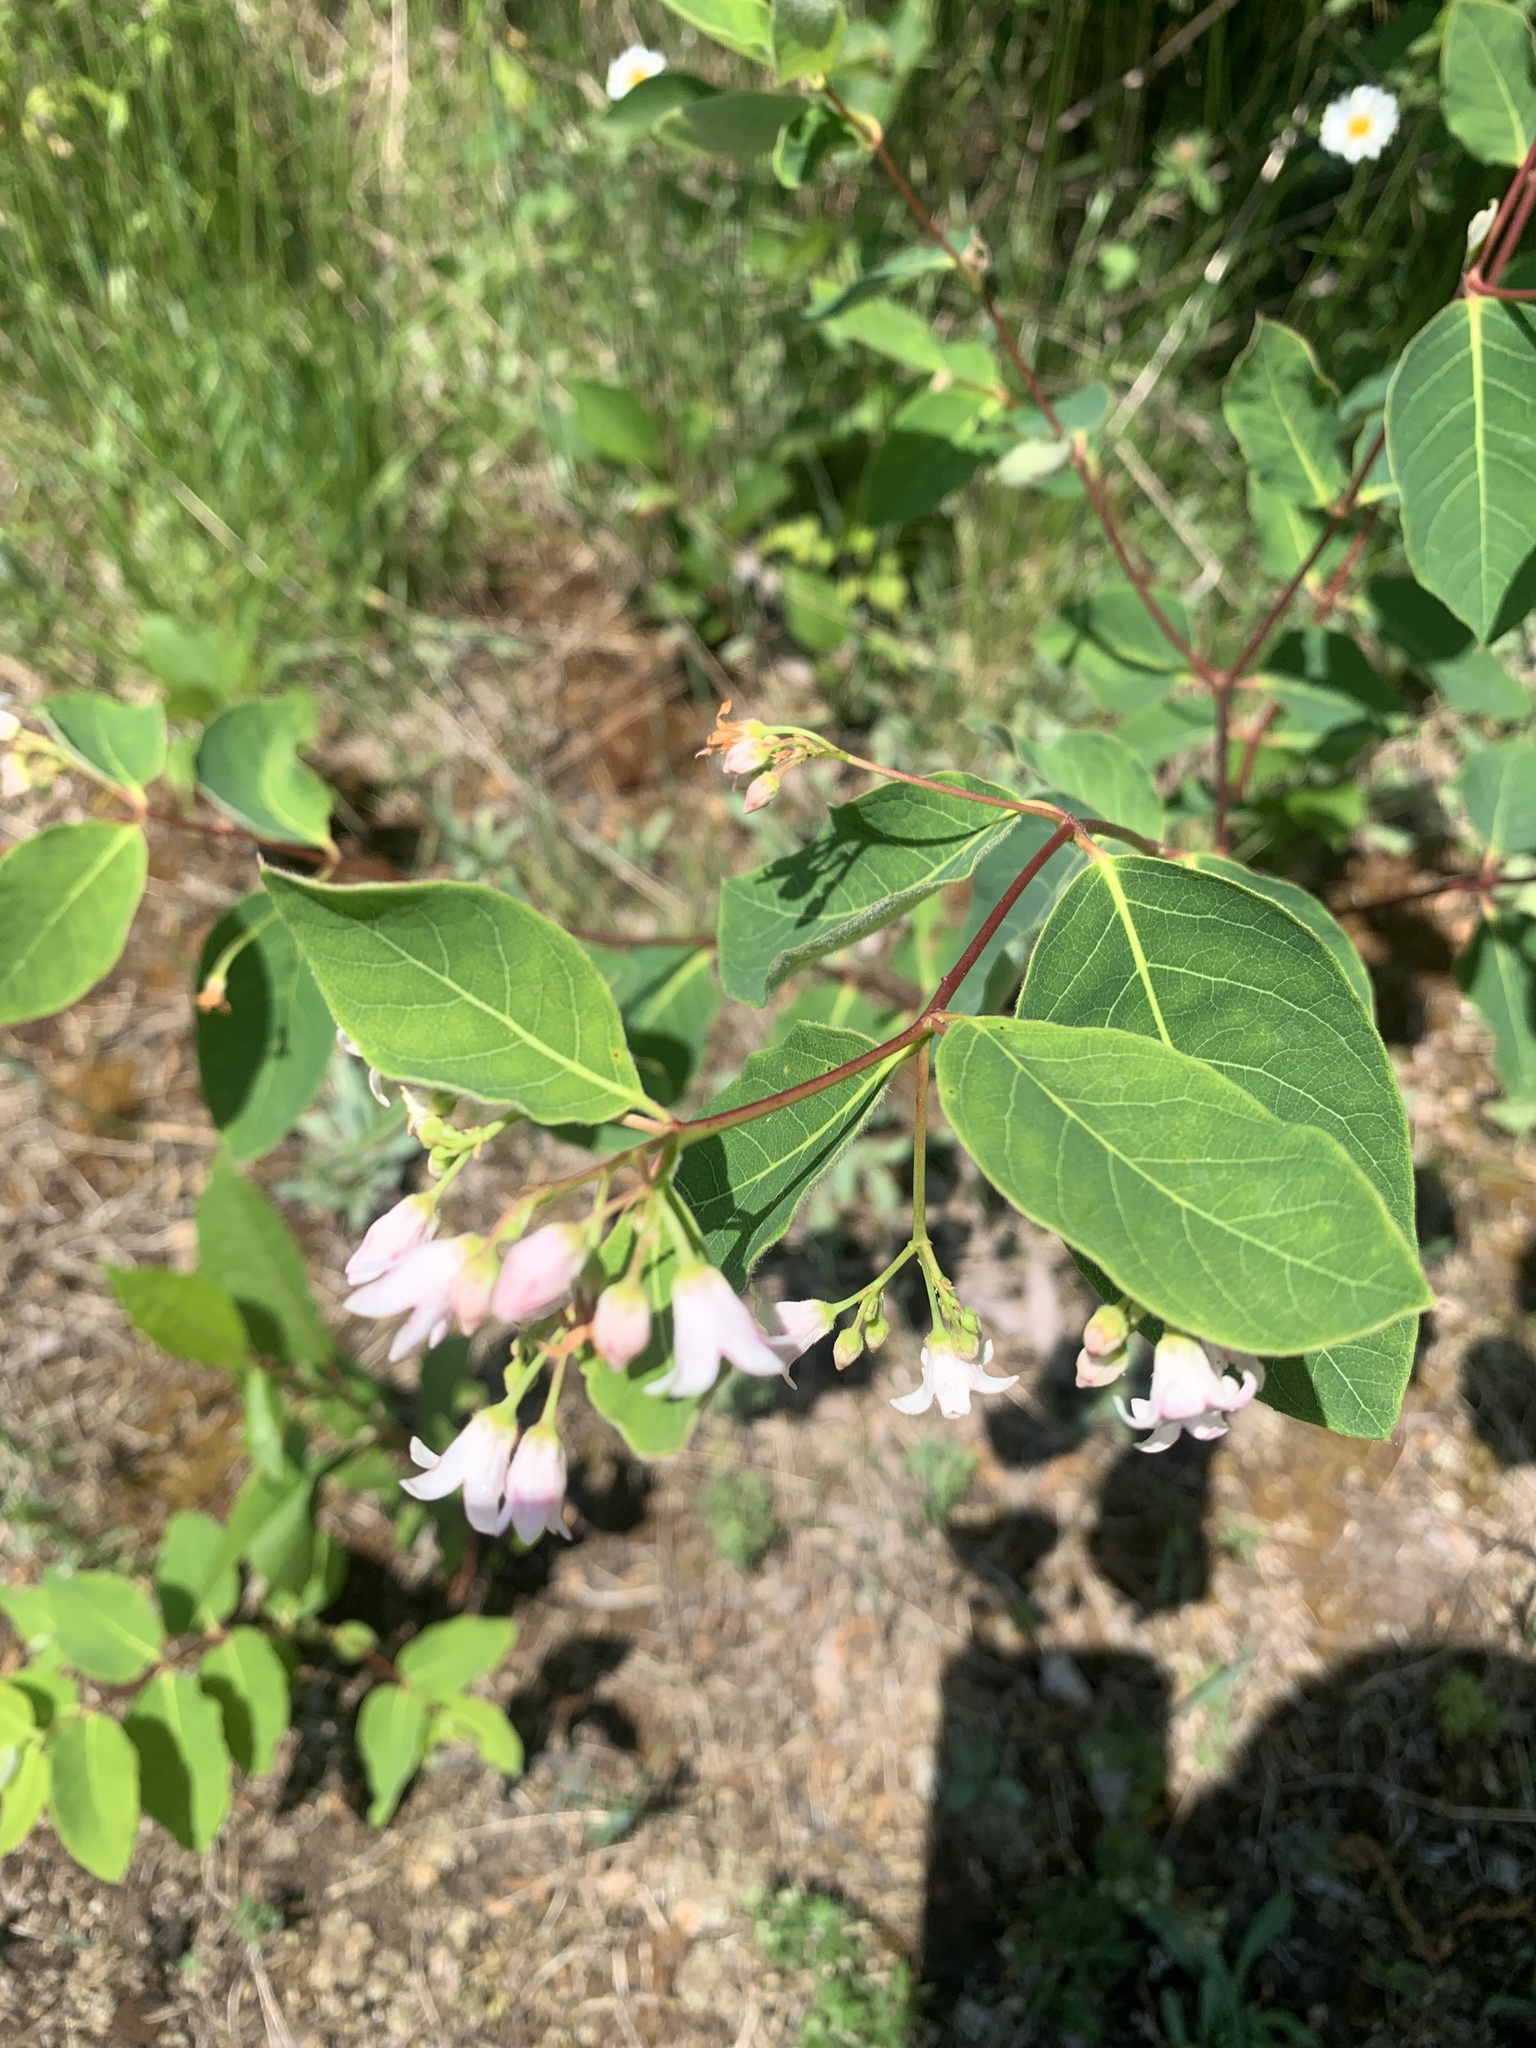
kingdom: Plantae
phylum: Tracheophyta
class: Magnoliopsida
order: Gentianales
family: Apocynaceae
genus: Apocynum
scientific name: Apocynum androsaemifolium
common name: Spreading dogbane
